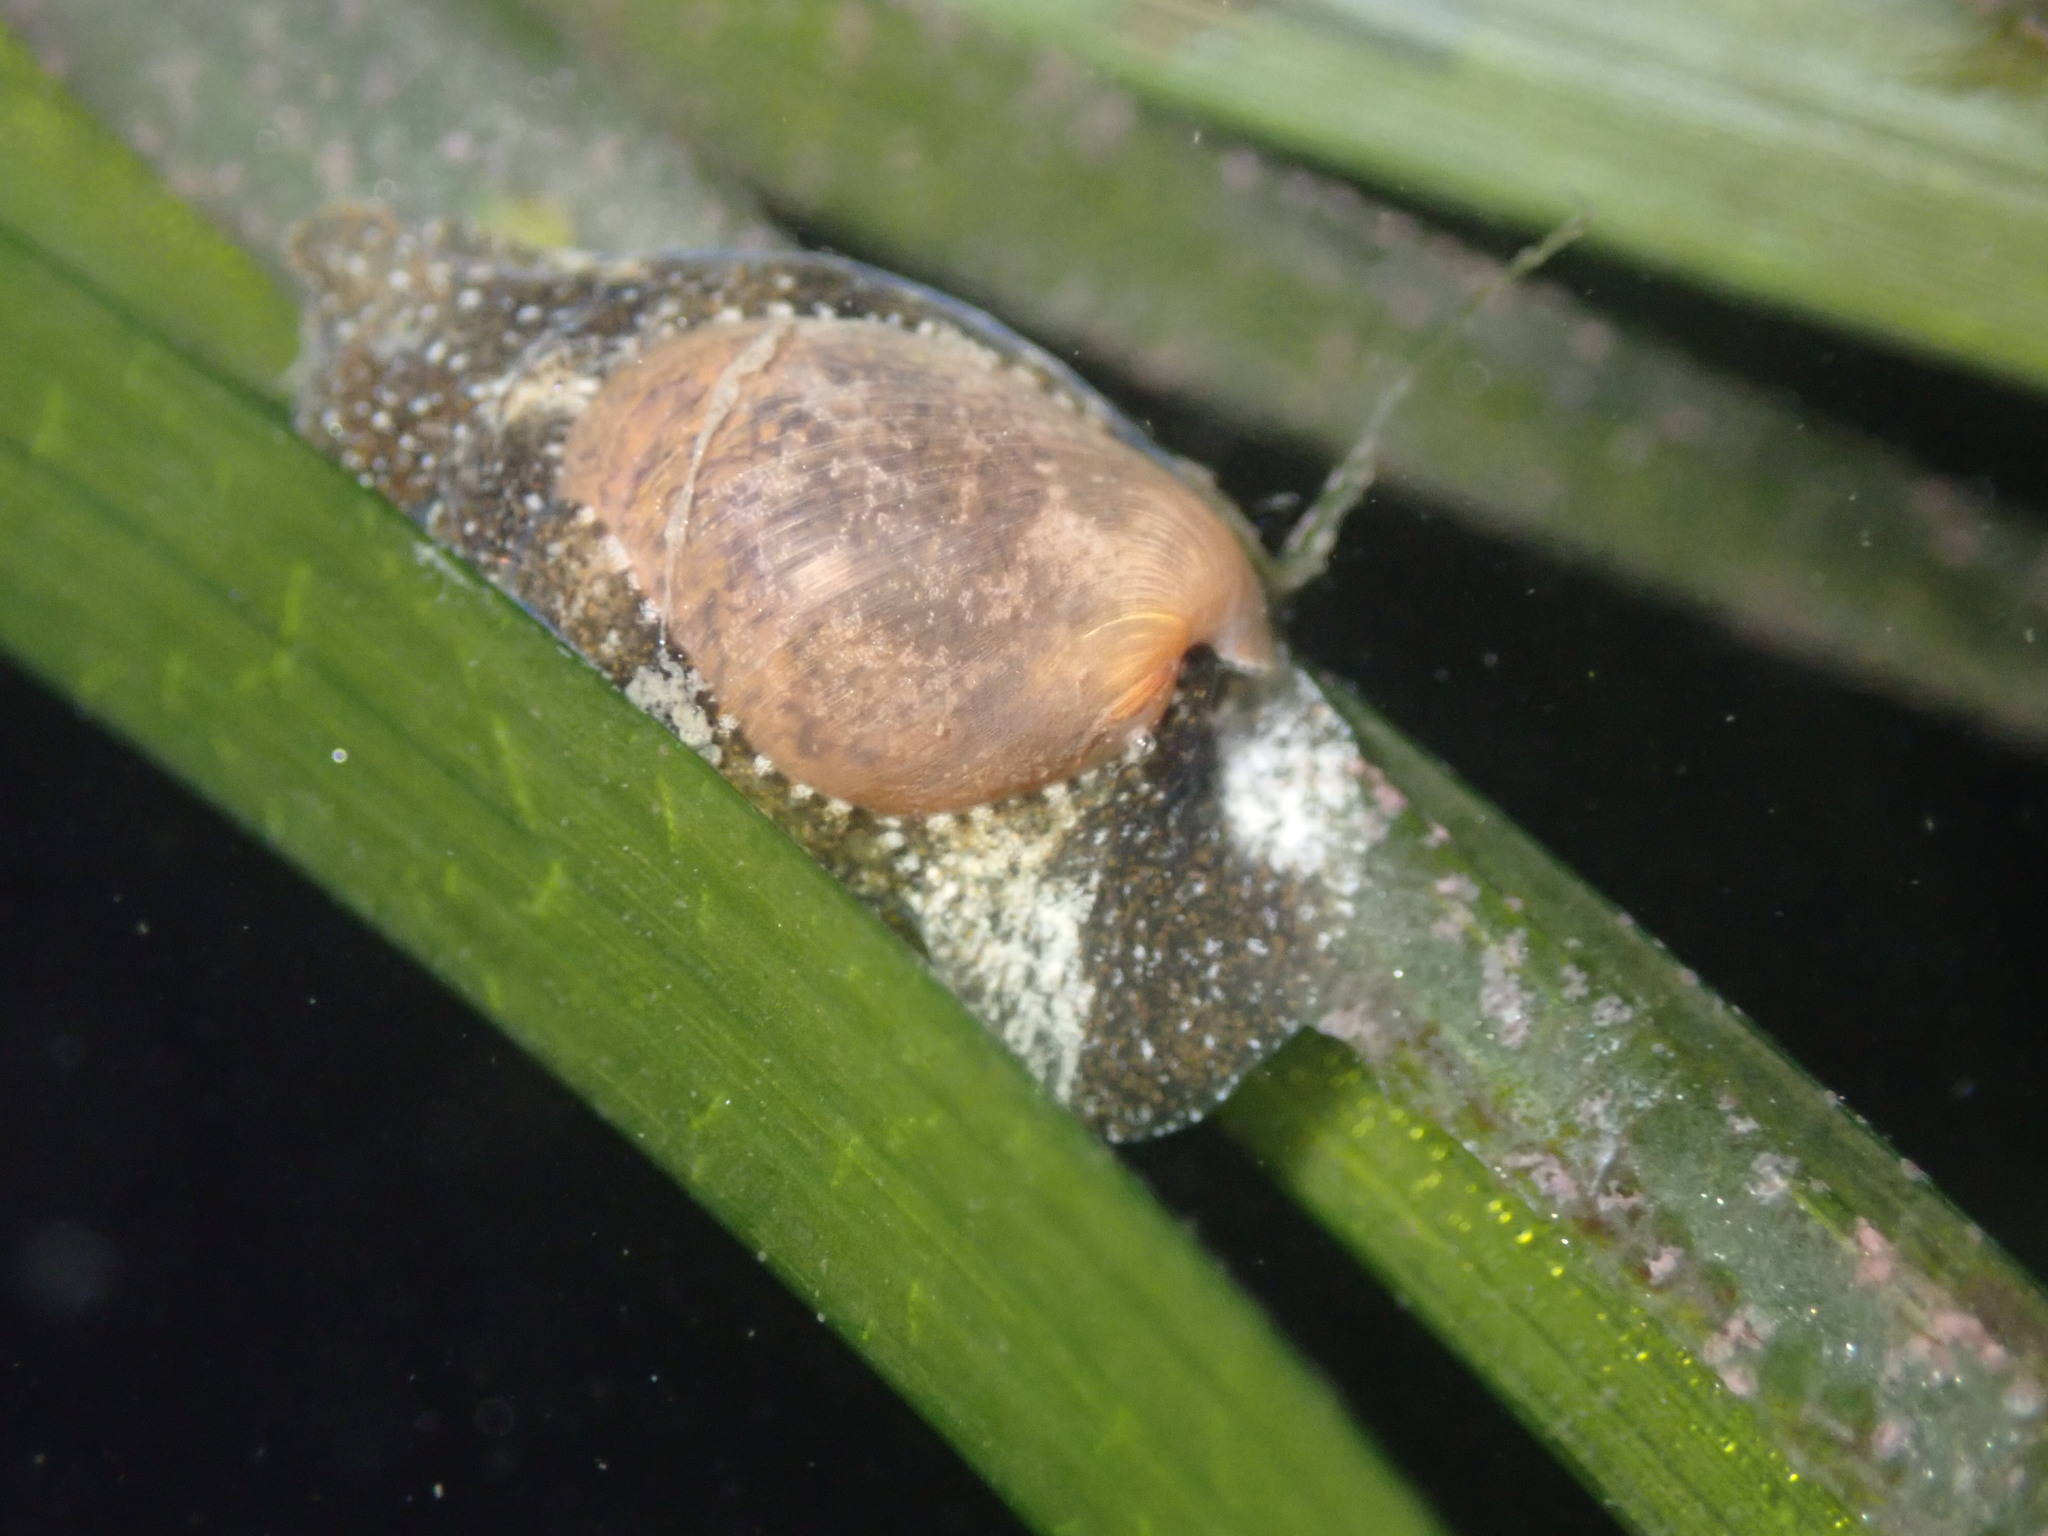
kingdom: Animalia
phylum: Mollusca
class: Gastropoda
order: Cephalaspidea
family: Haminoeidae
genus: Haminoea
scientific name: Haminoea virescens
